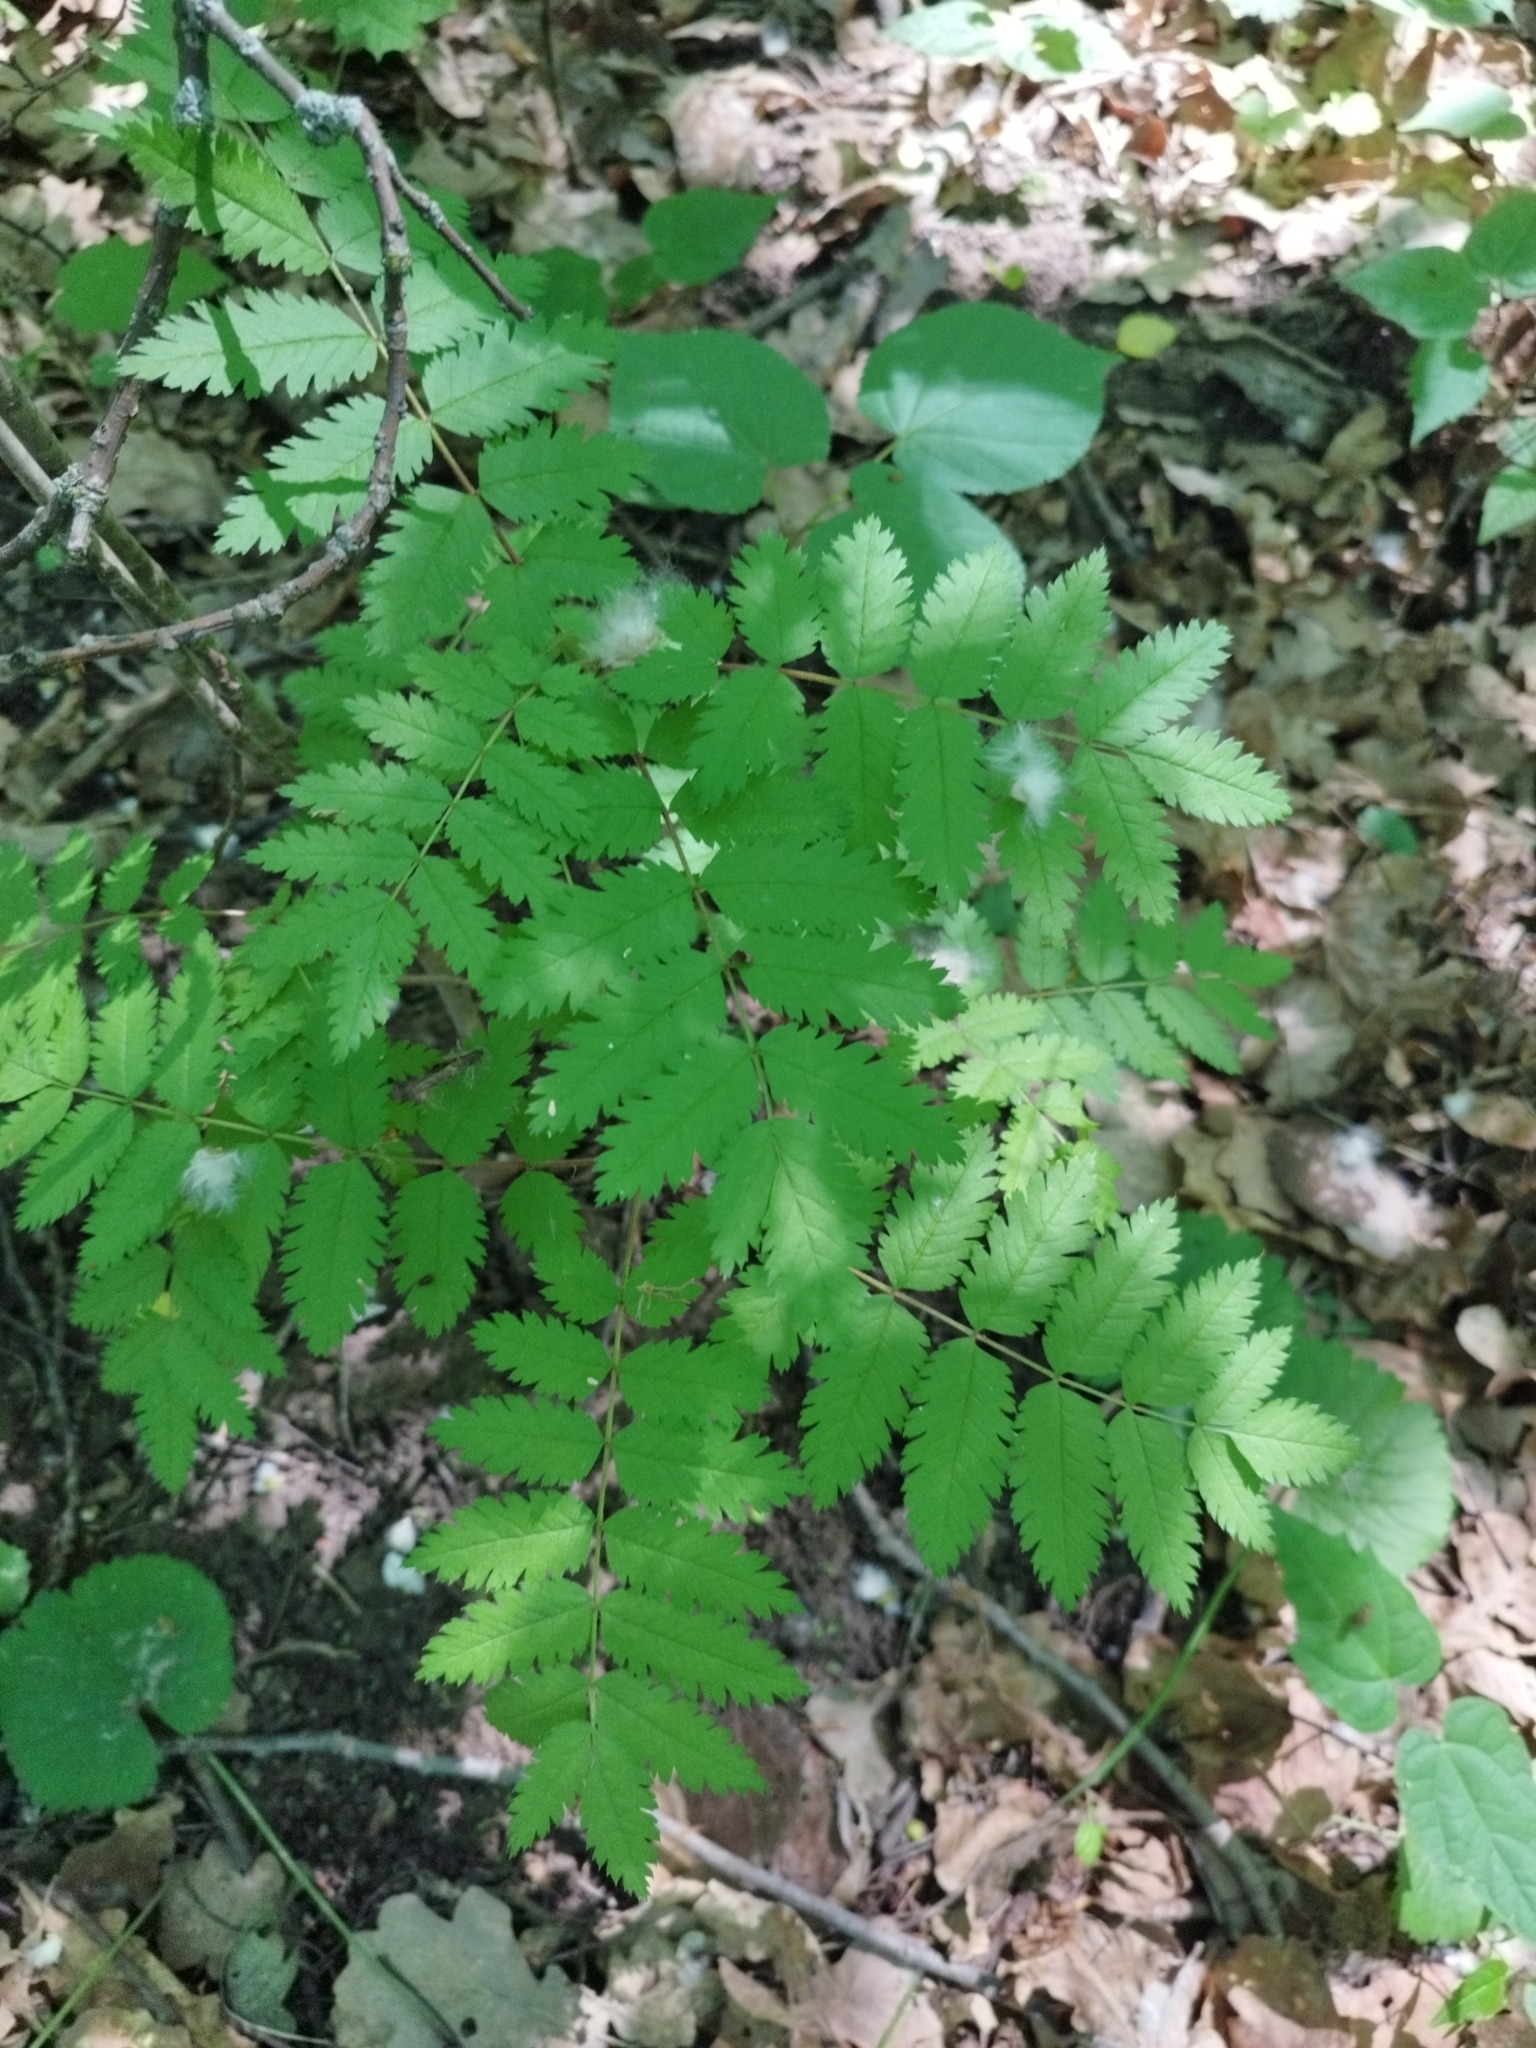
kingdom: Plantae
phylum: Tracheophyta
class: Magnoliopsida
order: Rosales
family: Rosaceae
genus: Sorbus
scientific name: Sorbus aucuparia
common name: Rowan
